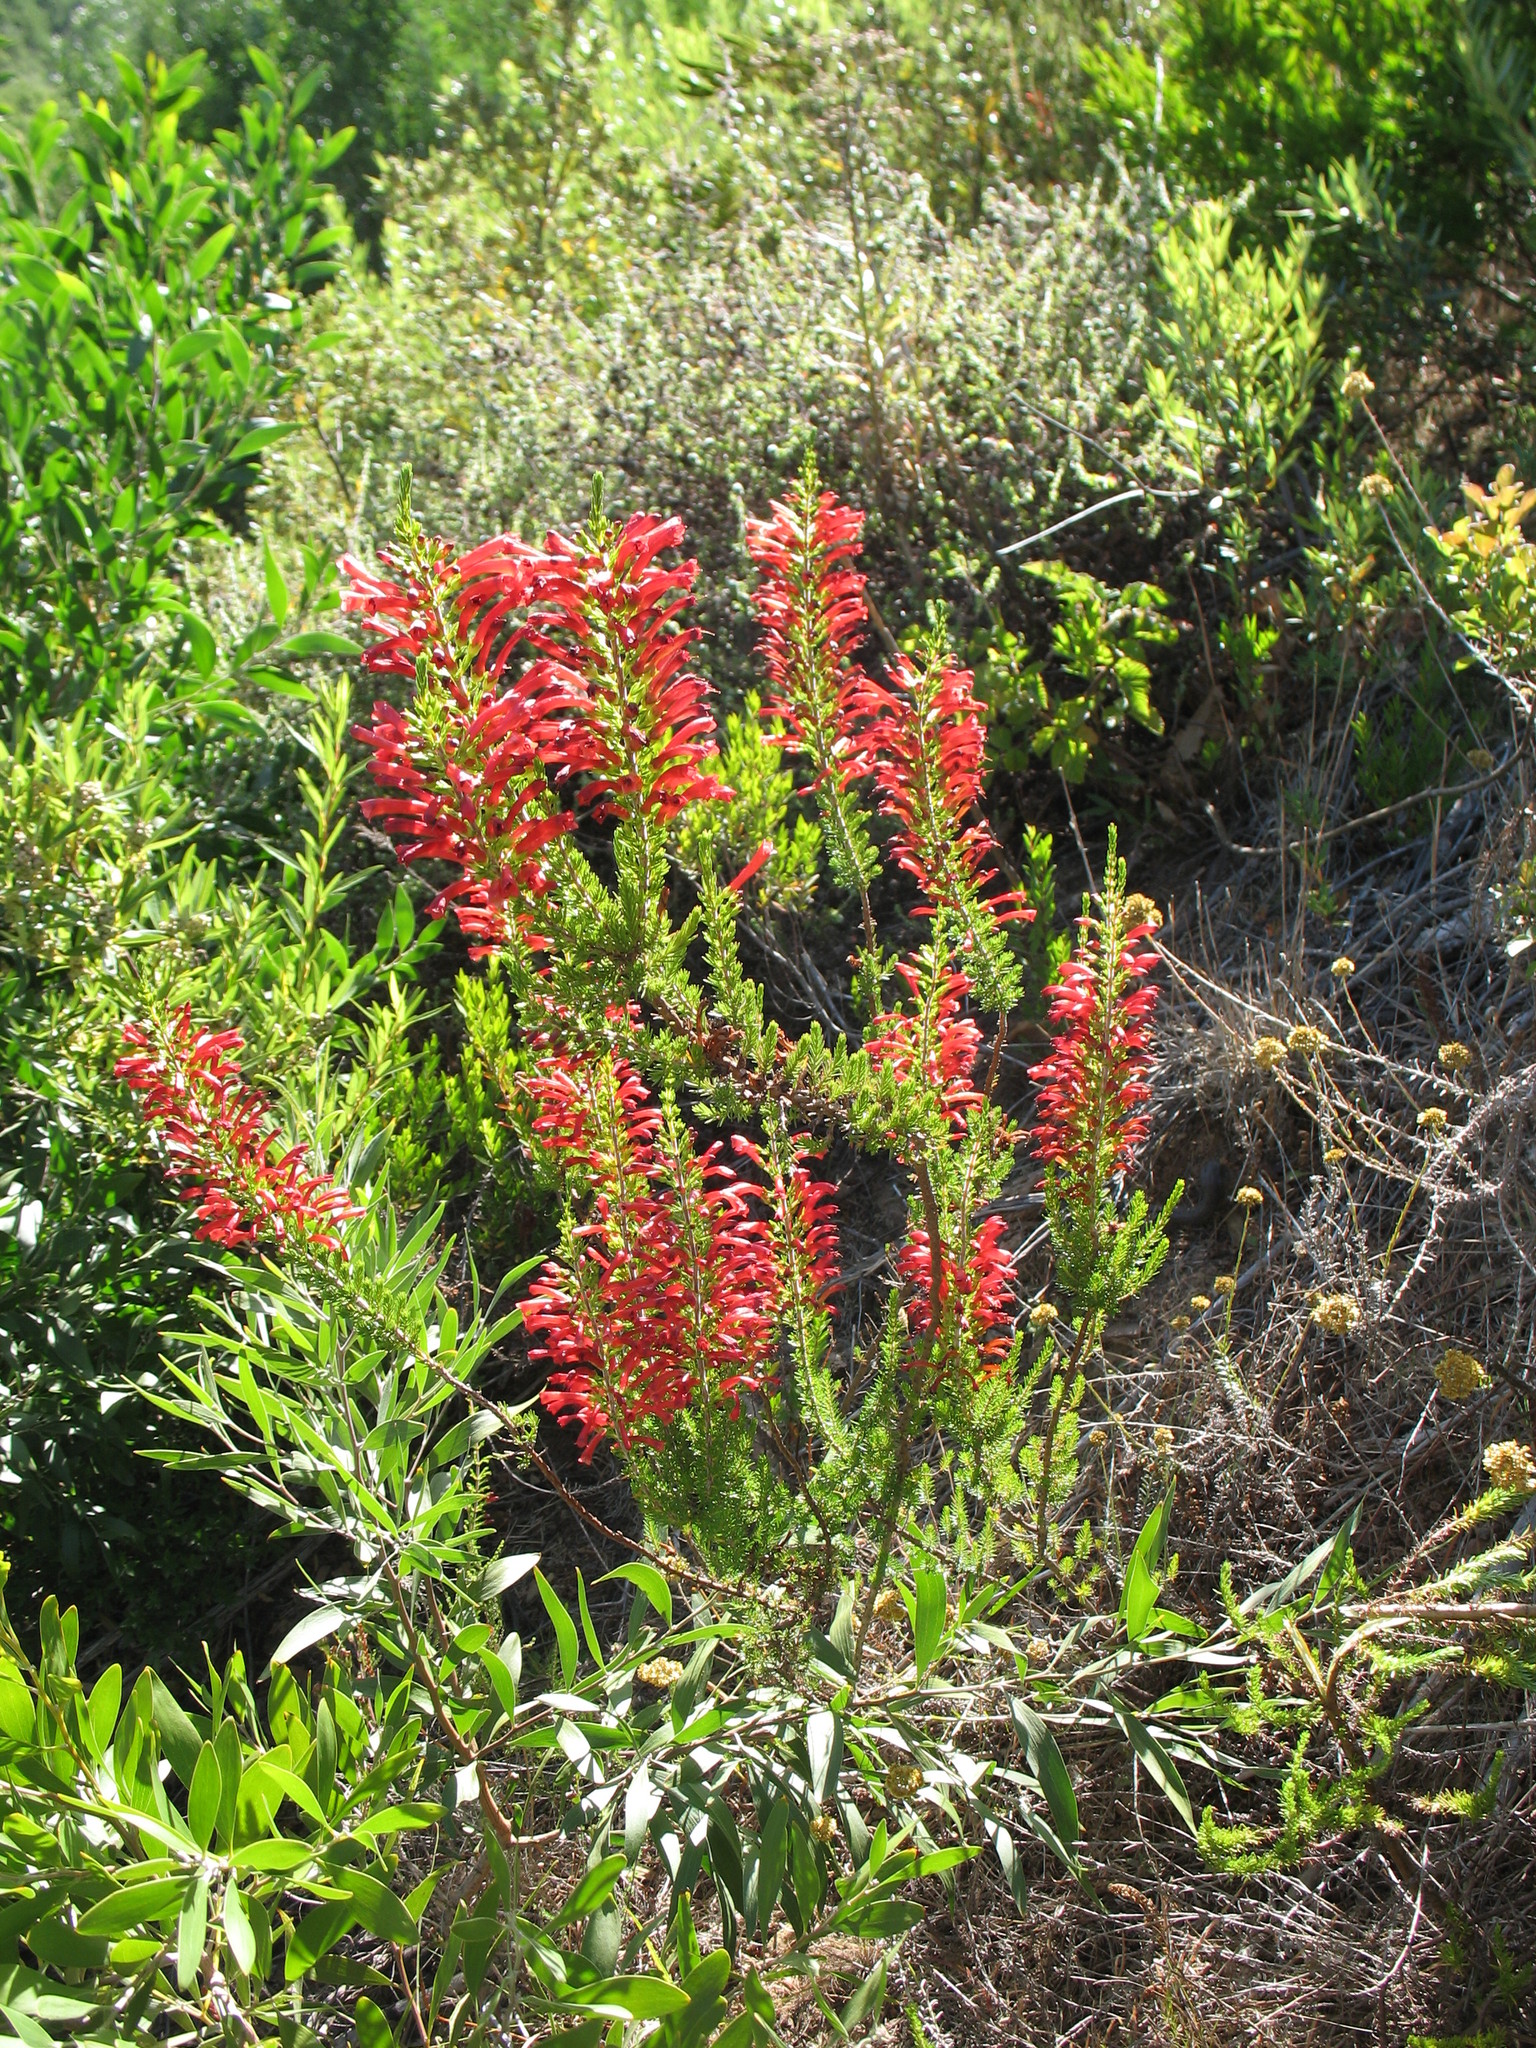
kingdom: Plantae
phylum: Tracheophyta
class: Magnoliopsida
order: Ericales
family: Ericaceae
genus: Erica
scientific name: Erica cruenta
